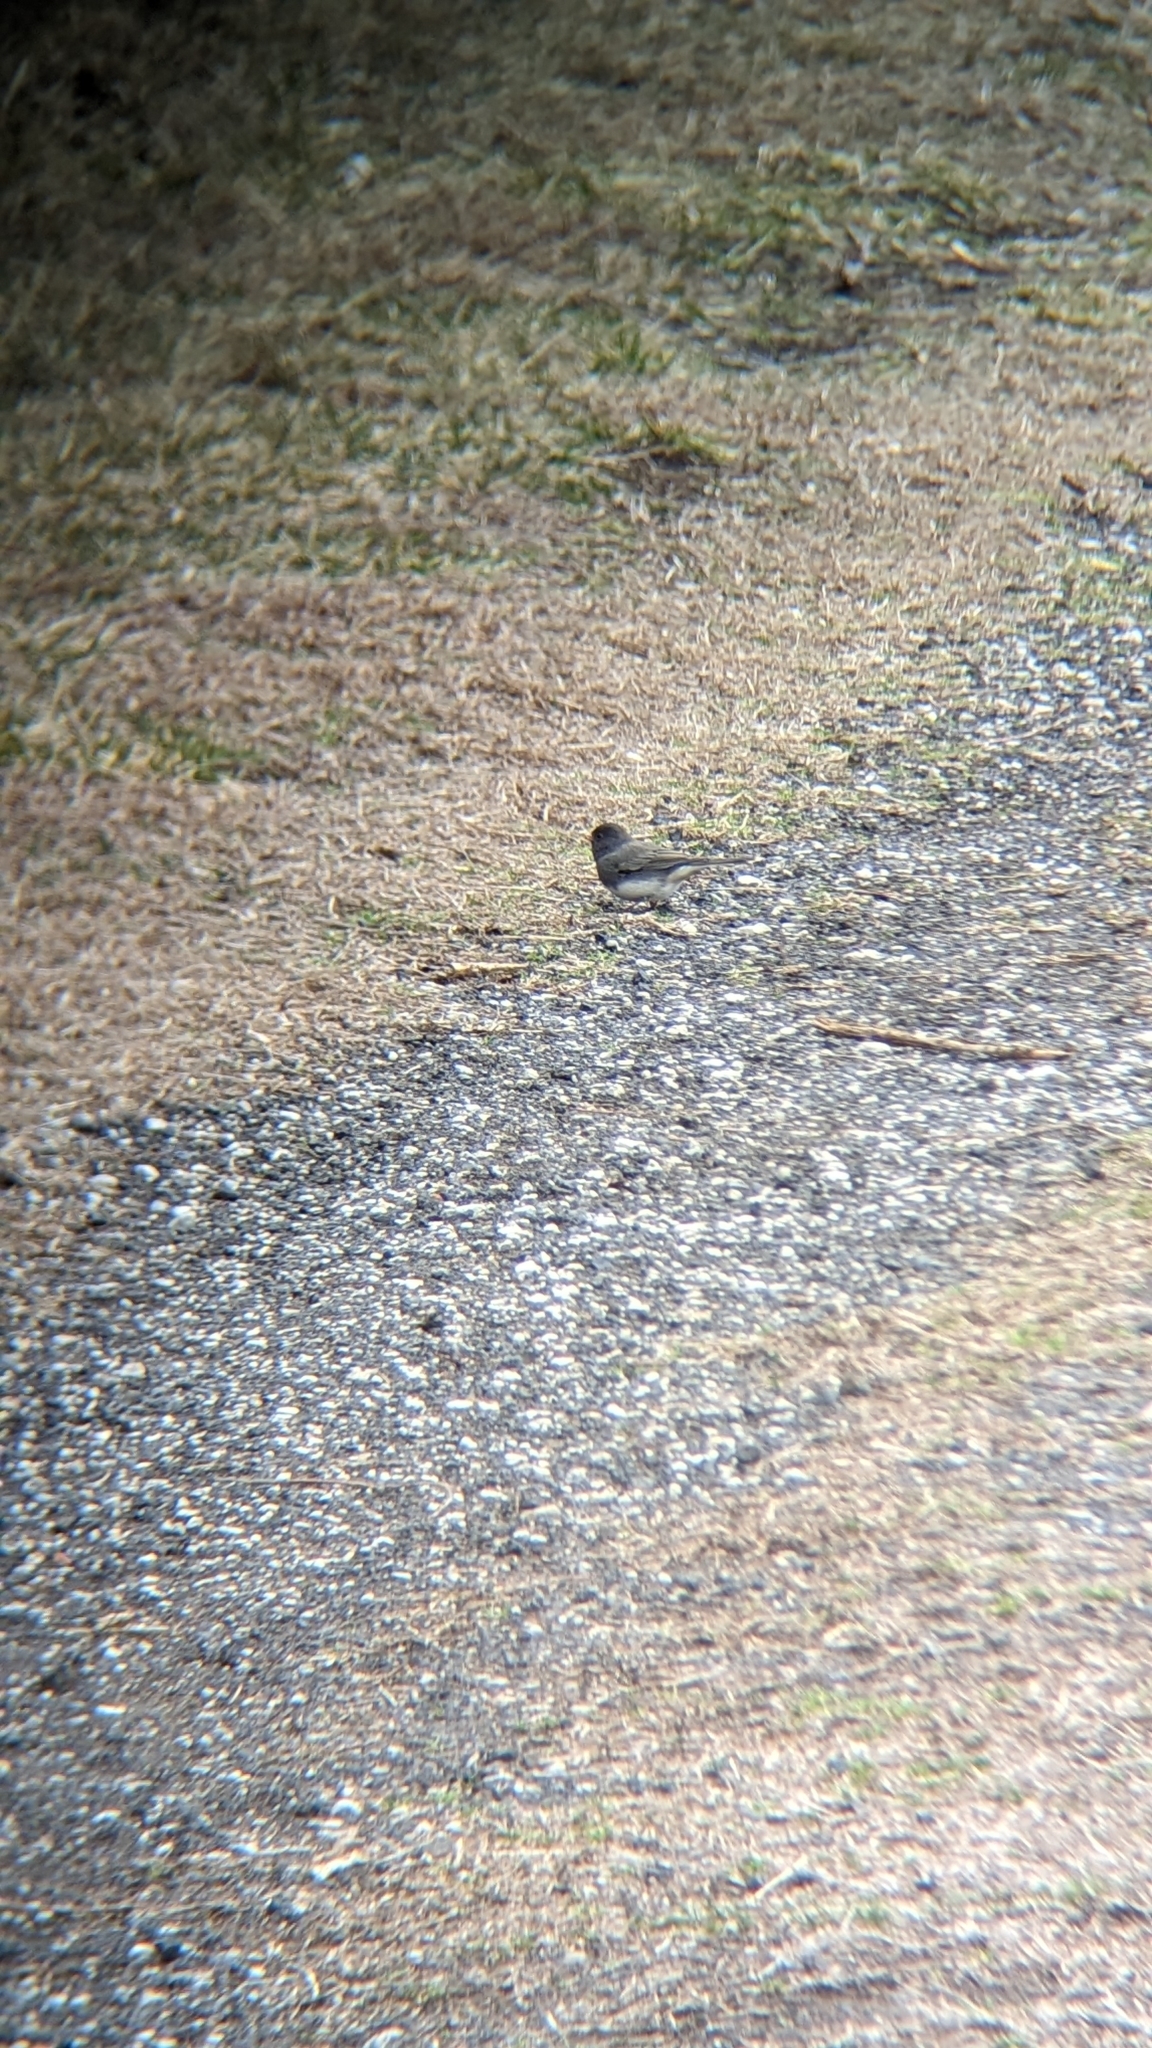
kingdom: Animalia
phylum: Chordata
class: Aves
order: Passeriformes
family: Passerellidae
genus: Junco
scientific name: Junco hyemalis
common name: Dark-eyed junco
